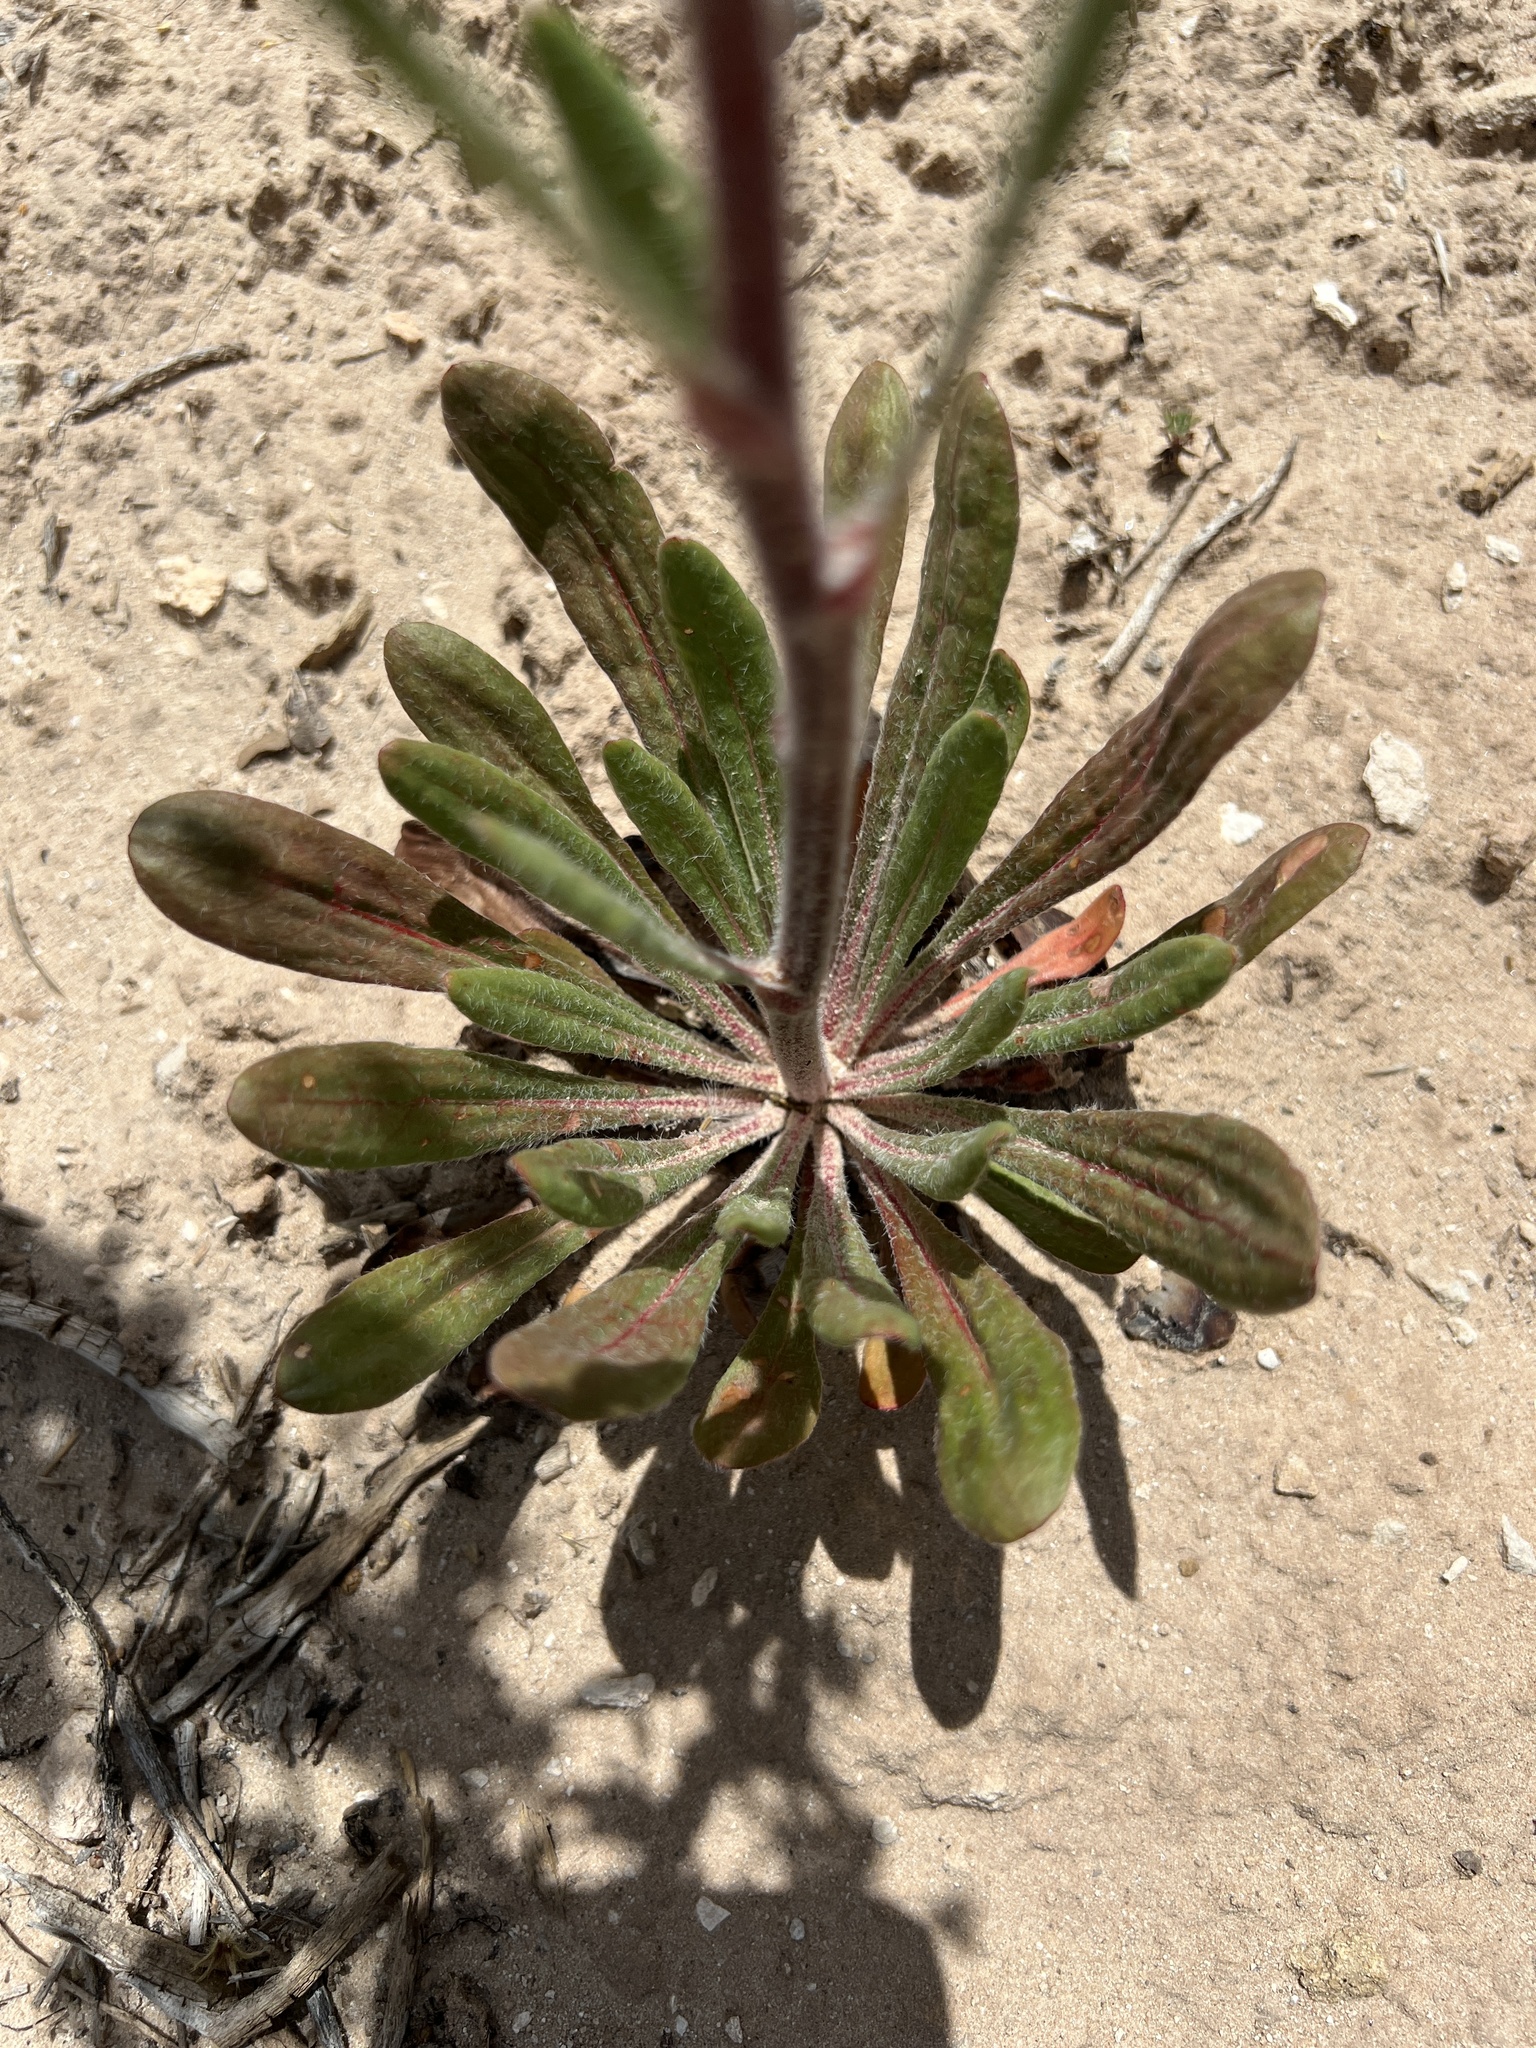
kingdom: Plantae
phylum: Tracheophyta
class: Magnoliopsida
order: Caryophyllales
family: Polygonaceae
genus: Eriogonum
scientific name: Eriogonum alatum
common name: Winged eriogonum
